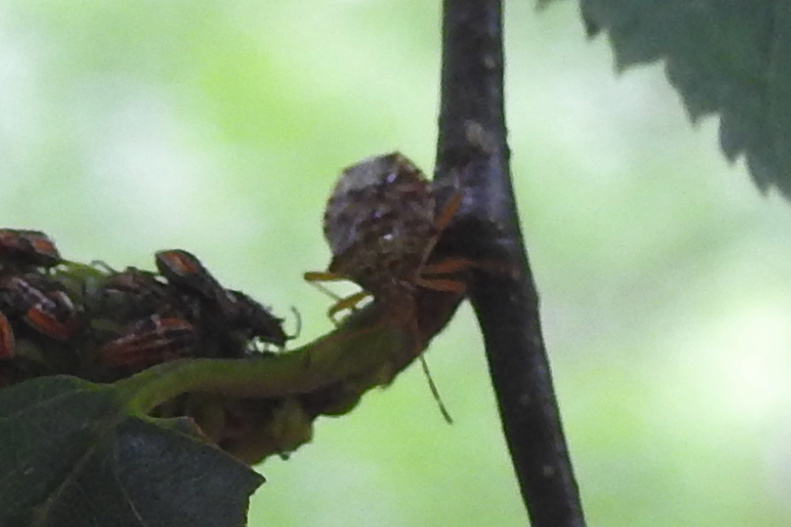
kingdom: Animalia
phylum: Arthropoda
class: Insecta
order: Hemiptera
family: Acanthosomatidae
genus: Elasmucha
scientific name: Elasmucha lateralis
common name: Shield bug
